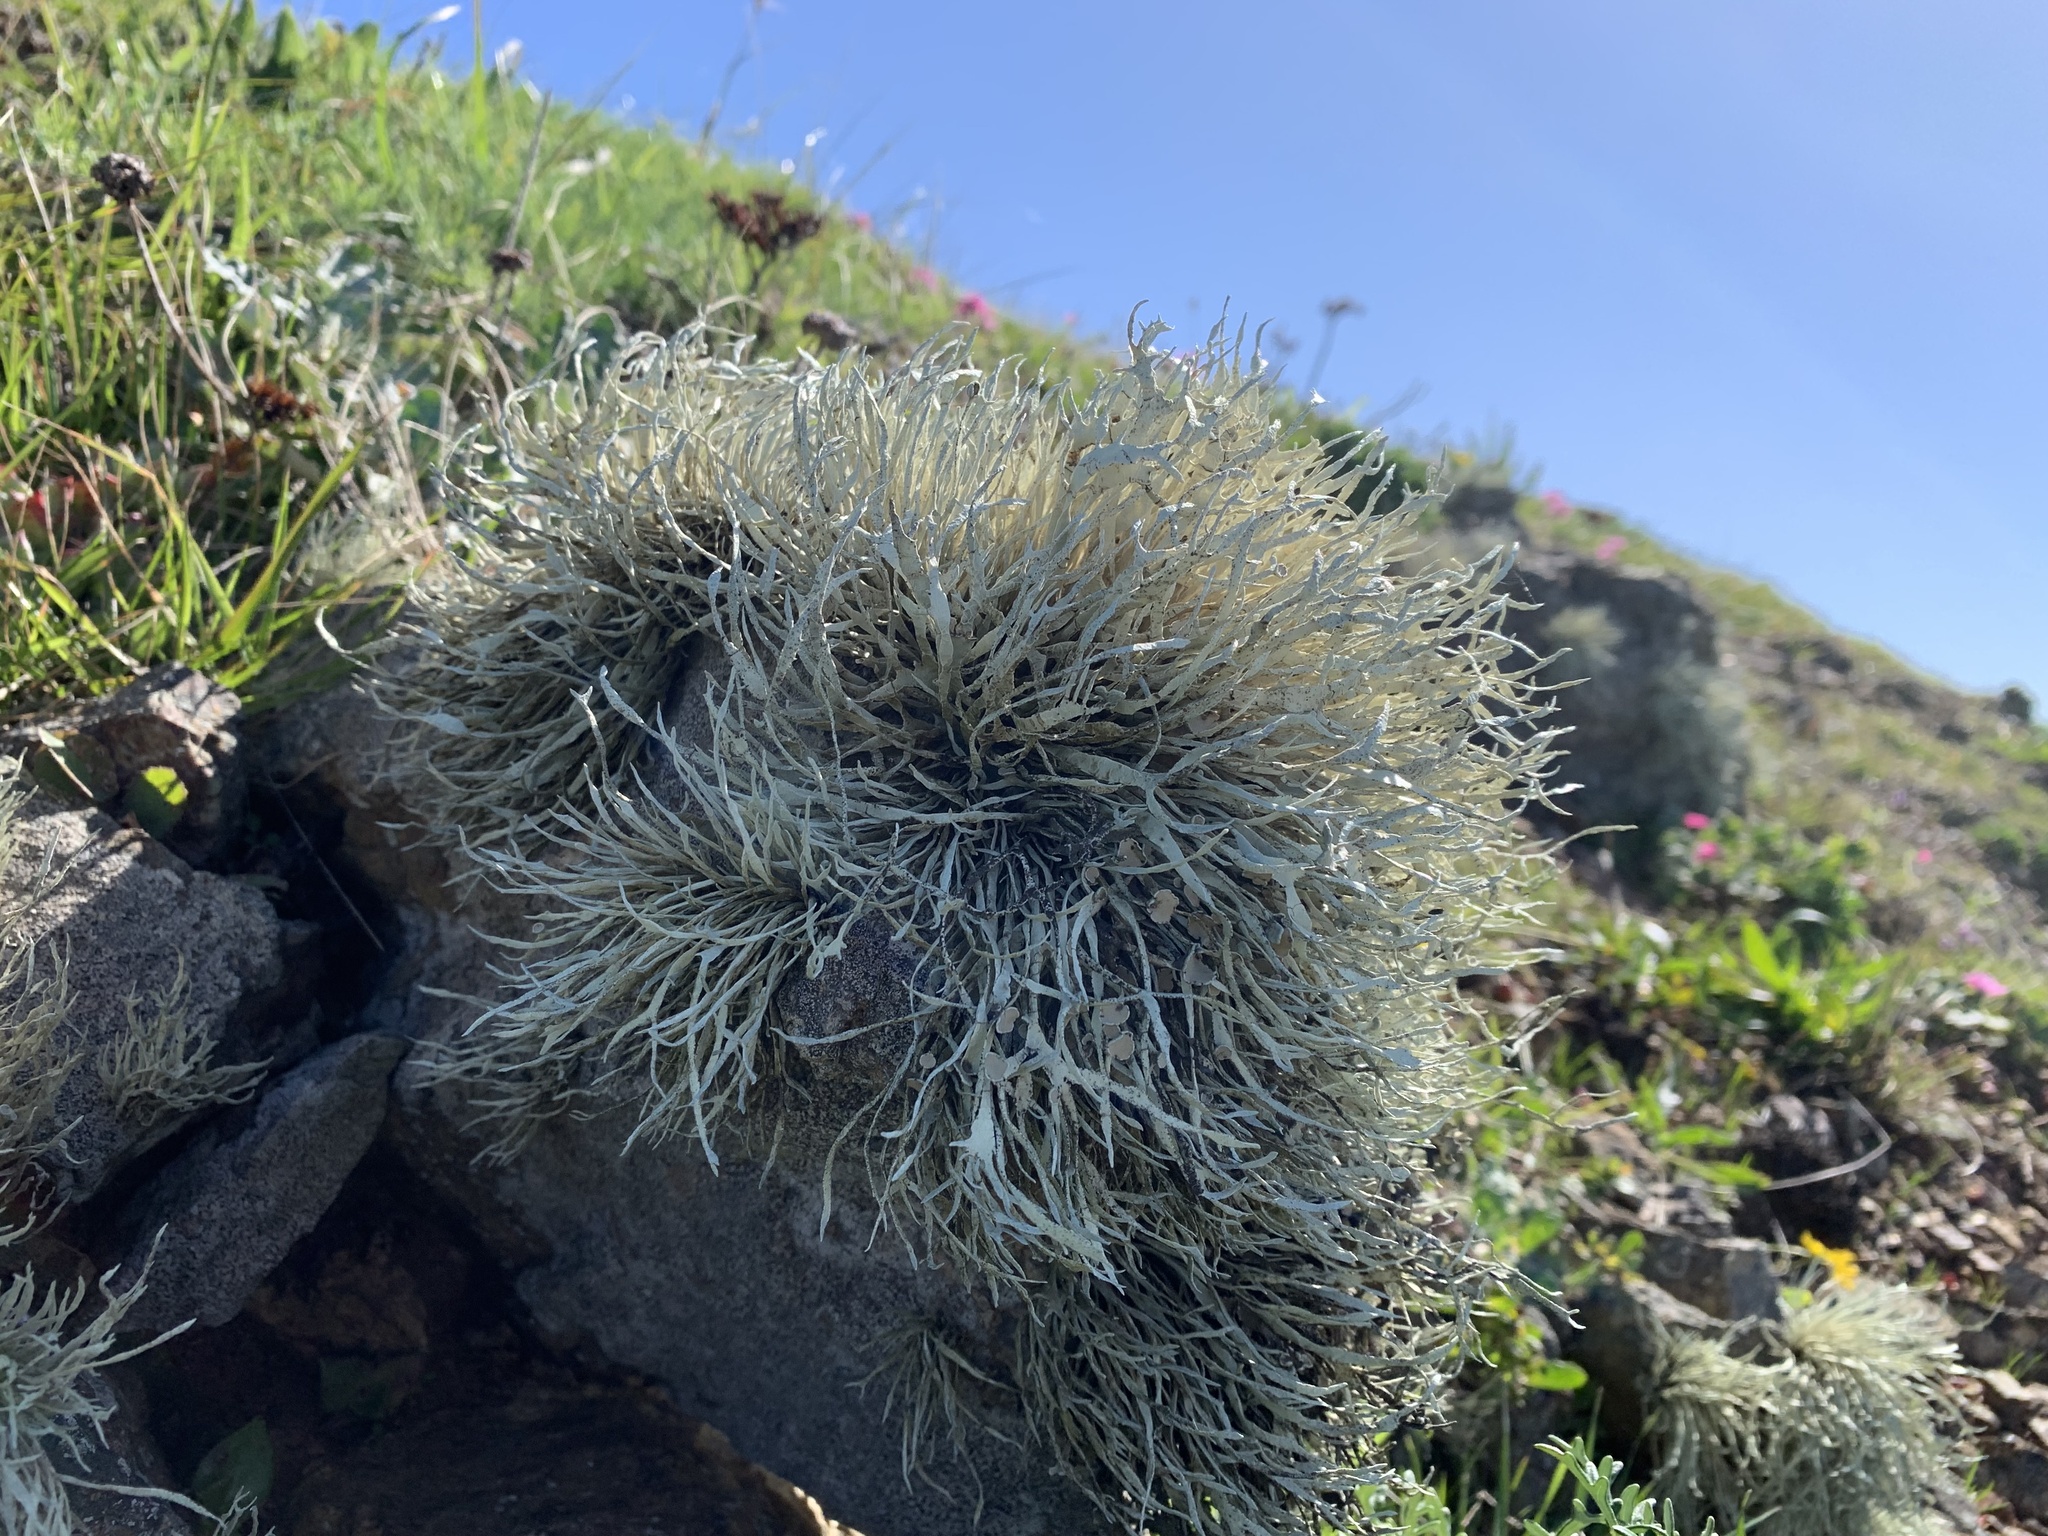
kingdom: Fungi
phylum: Ascomycota
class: Lecanoromycetes
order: Lecanorales
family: Ramalinaceae
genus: Niebla
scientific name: Niebla homalea
